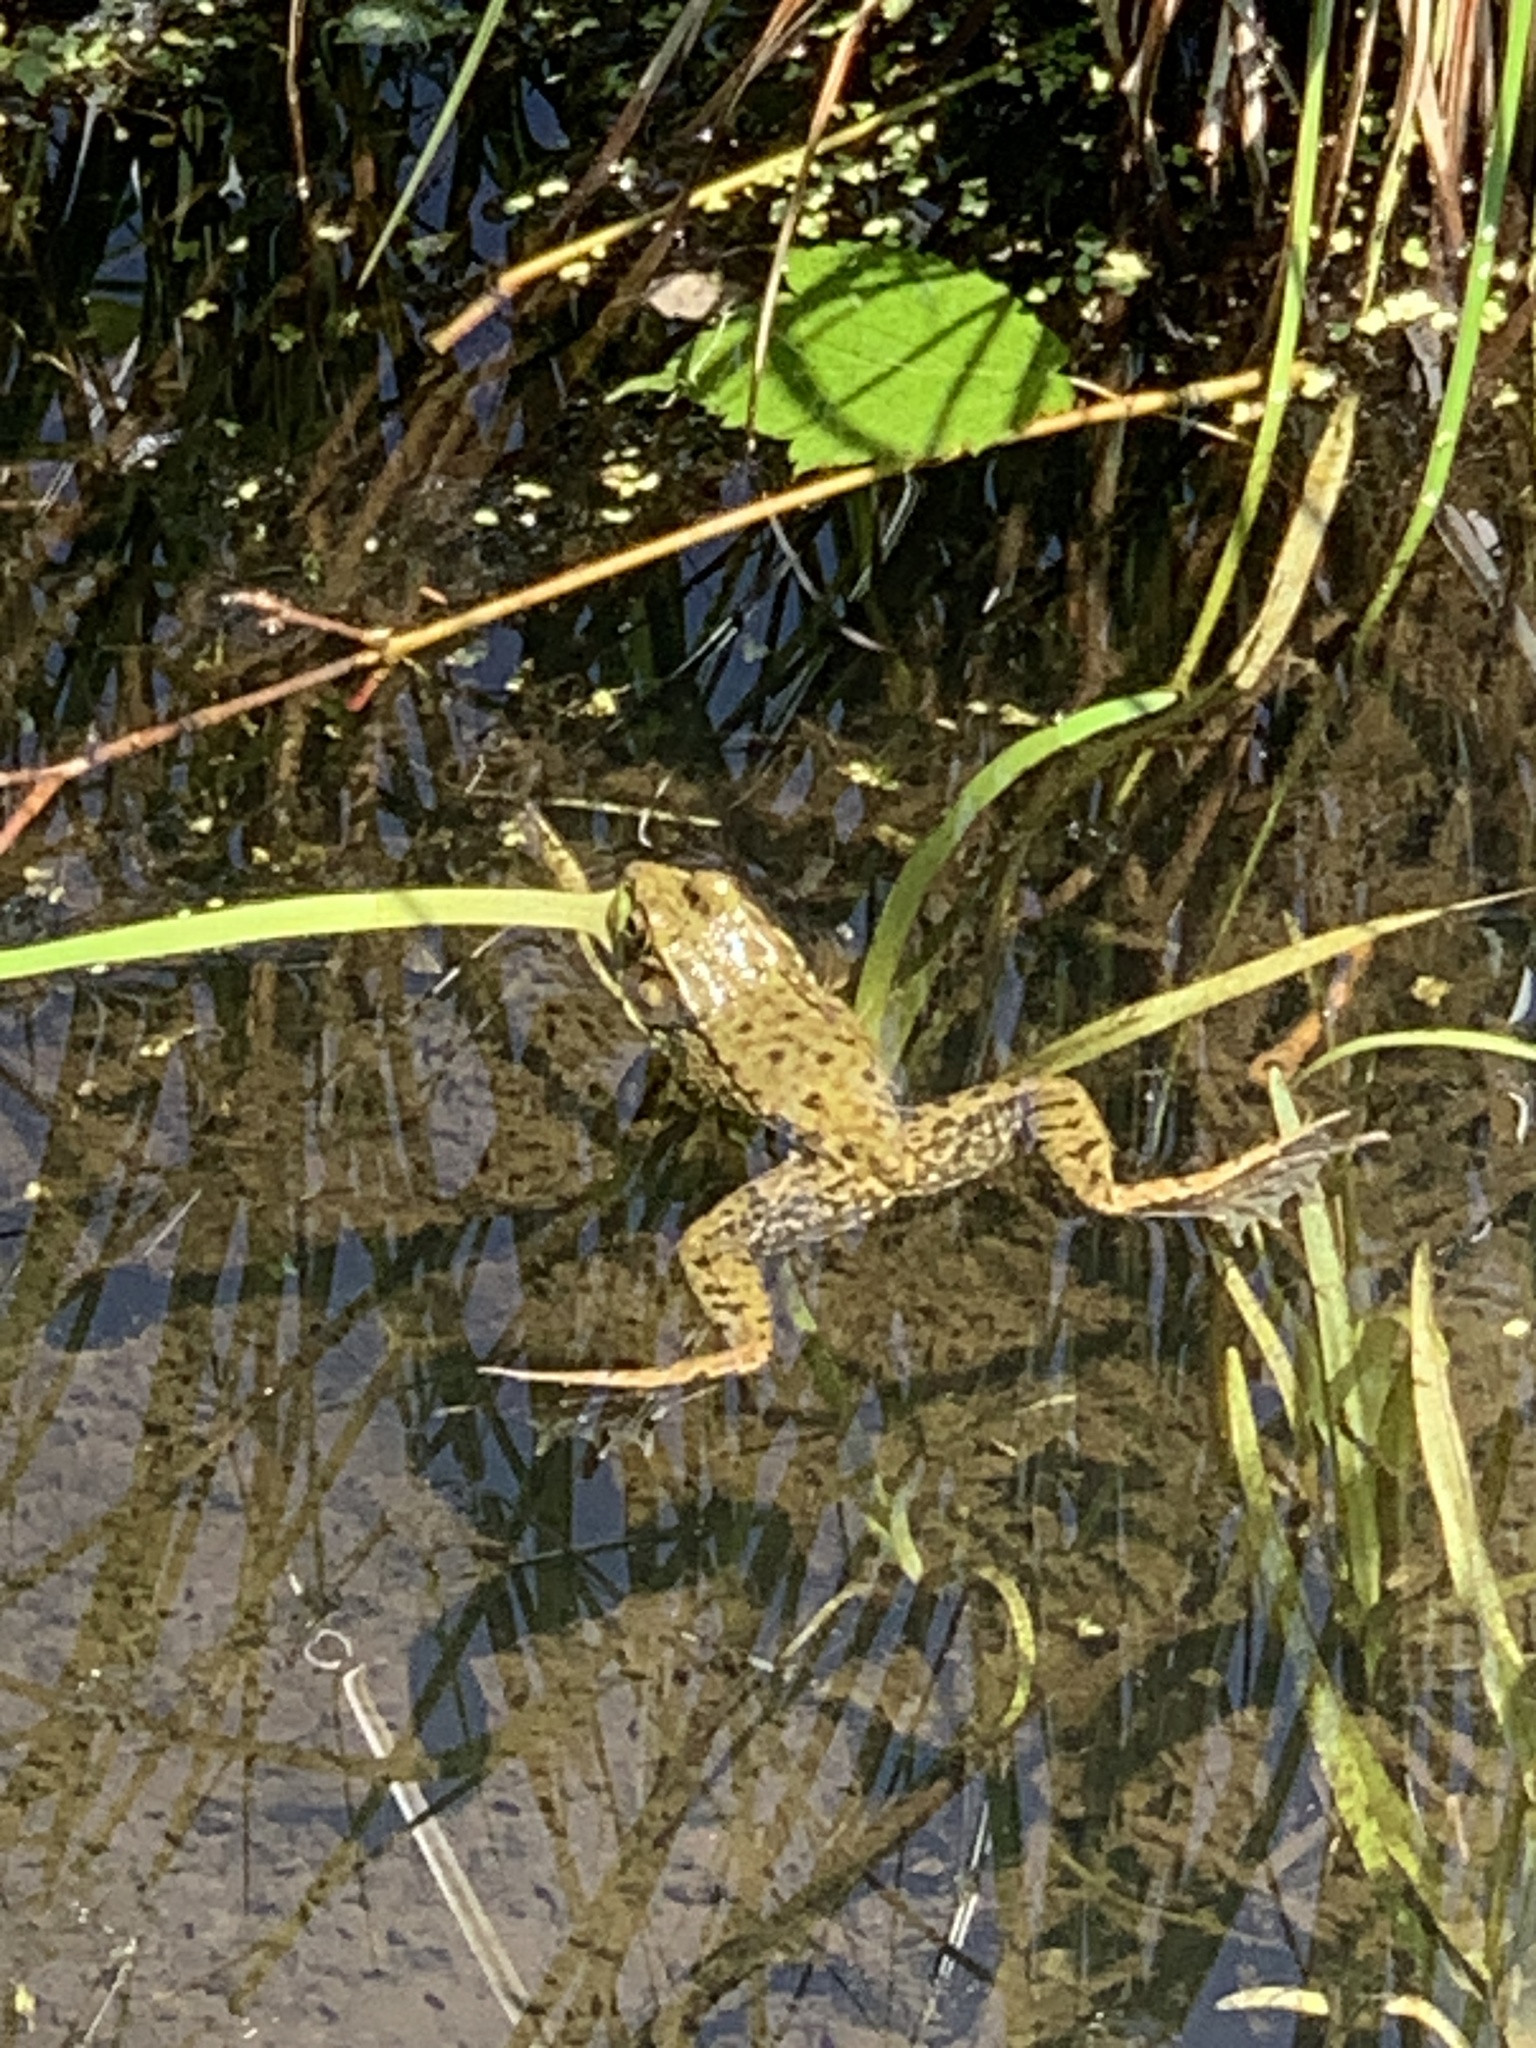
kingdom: Animalia
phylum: Chordata
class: Amphibia
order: Anura
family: Ranidae
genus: Lithobates
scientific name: Lithobates clamitans
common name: Green frog
